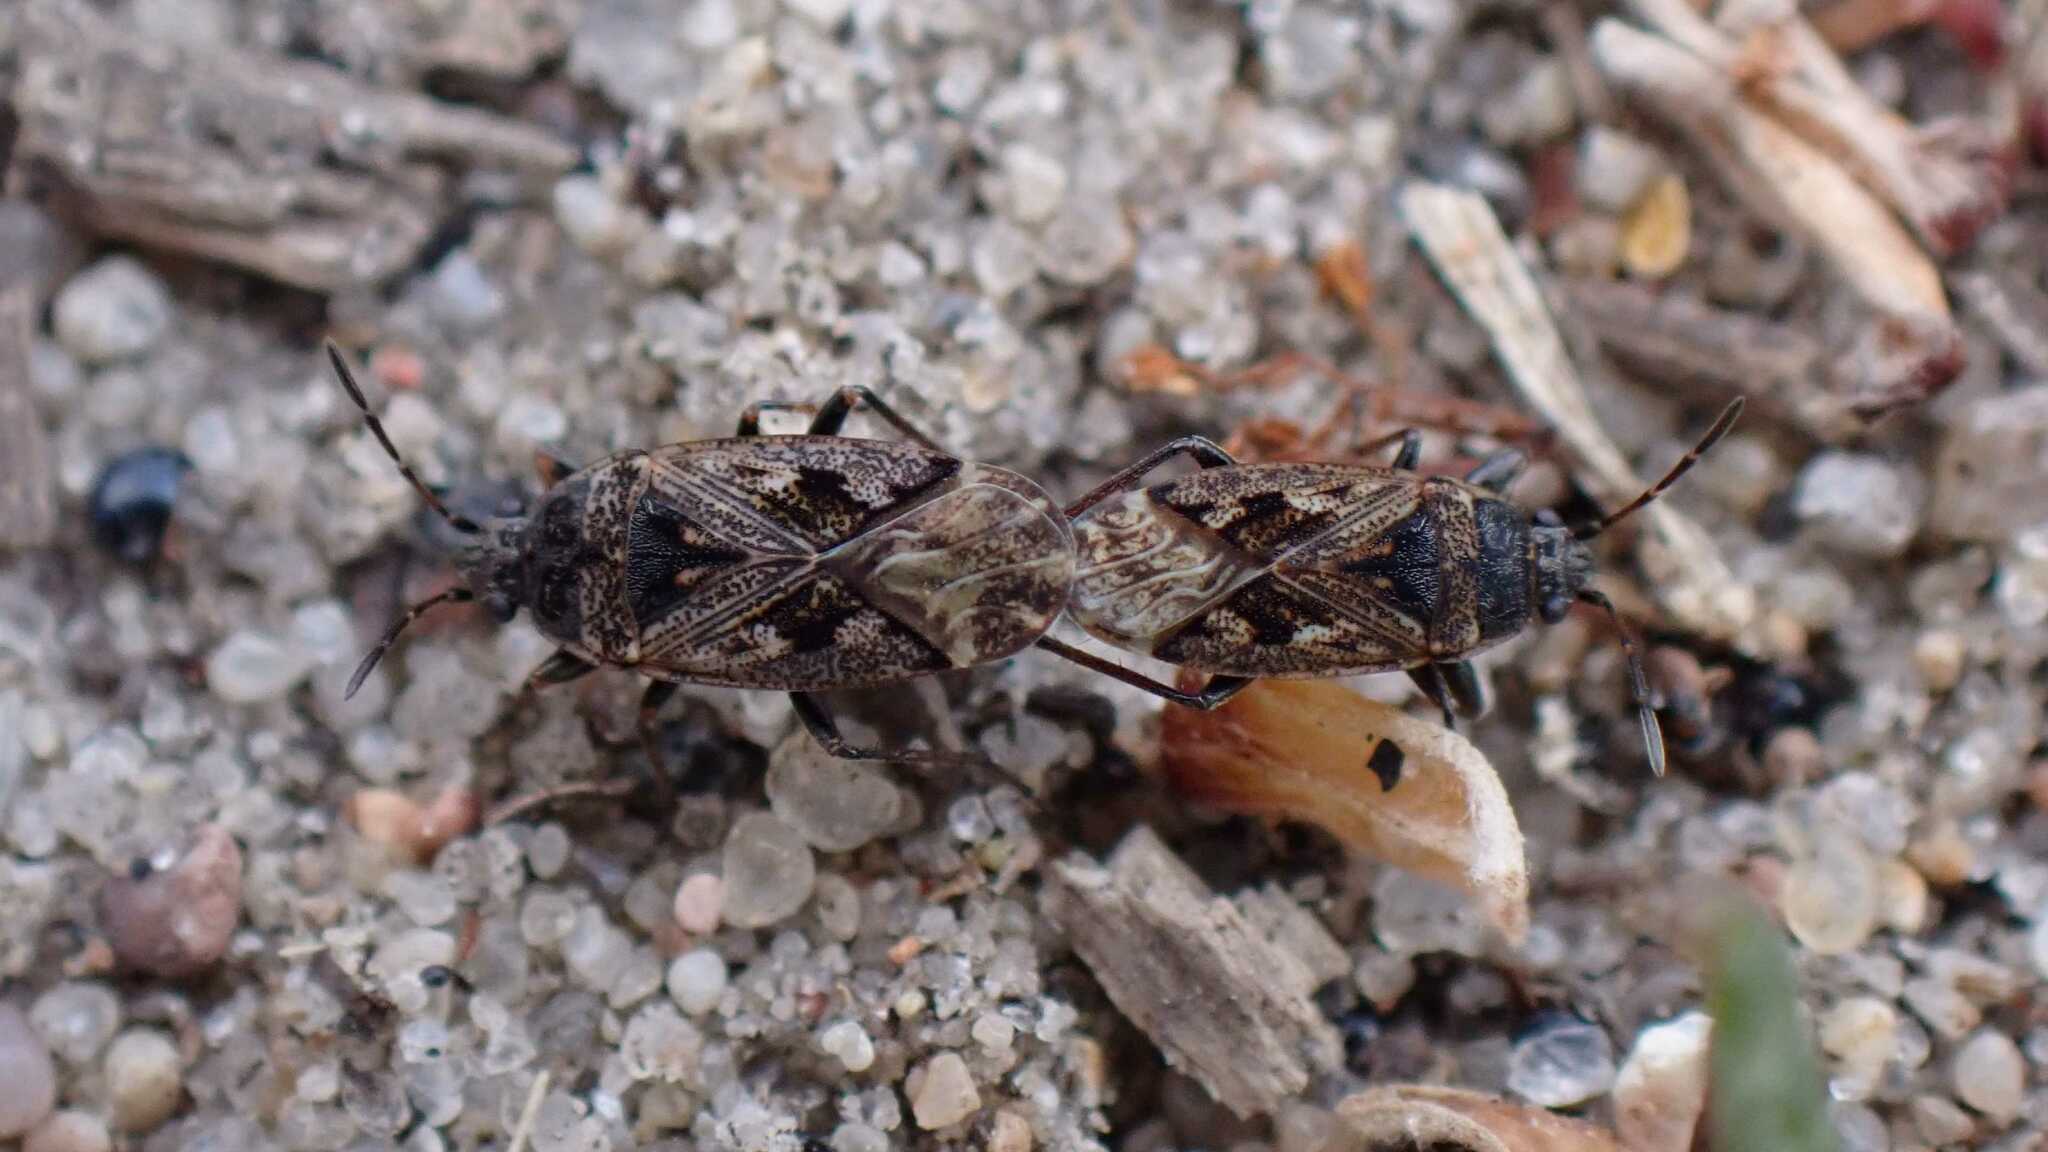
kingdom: Animalia
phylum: Arthropoda
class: Insecta
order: Hemiptera
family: Rhyparochromidae
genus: Sphragisticus
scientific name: Sphragisticus nebulosus
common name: Dirt-colored seed bug
